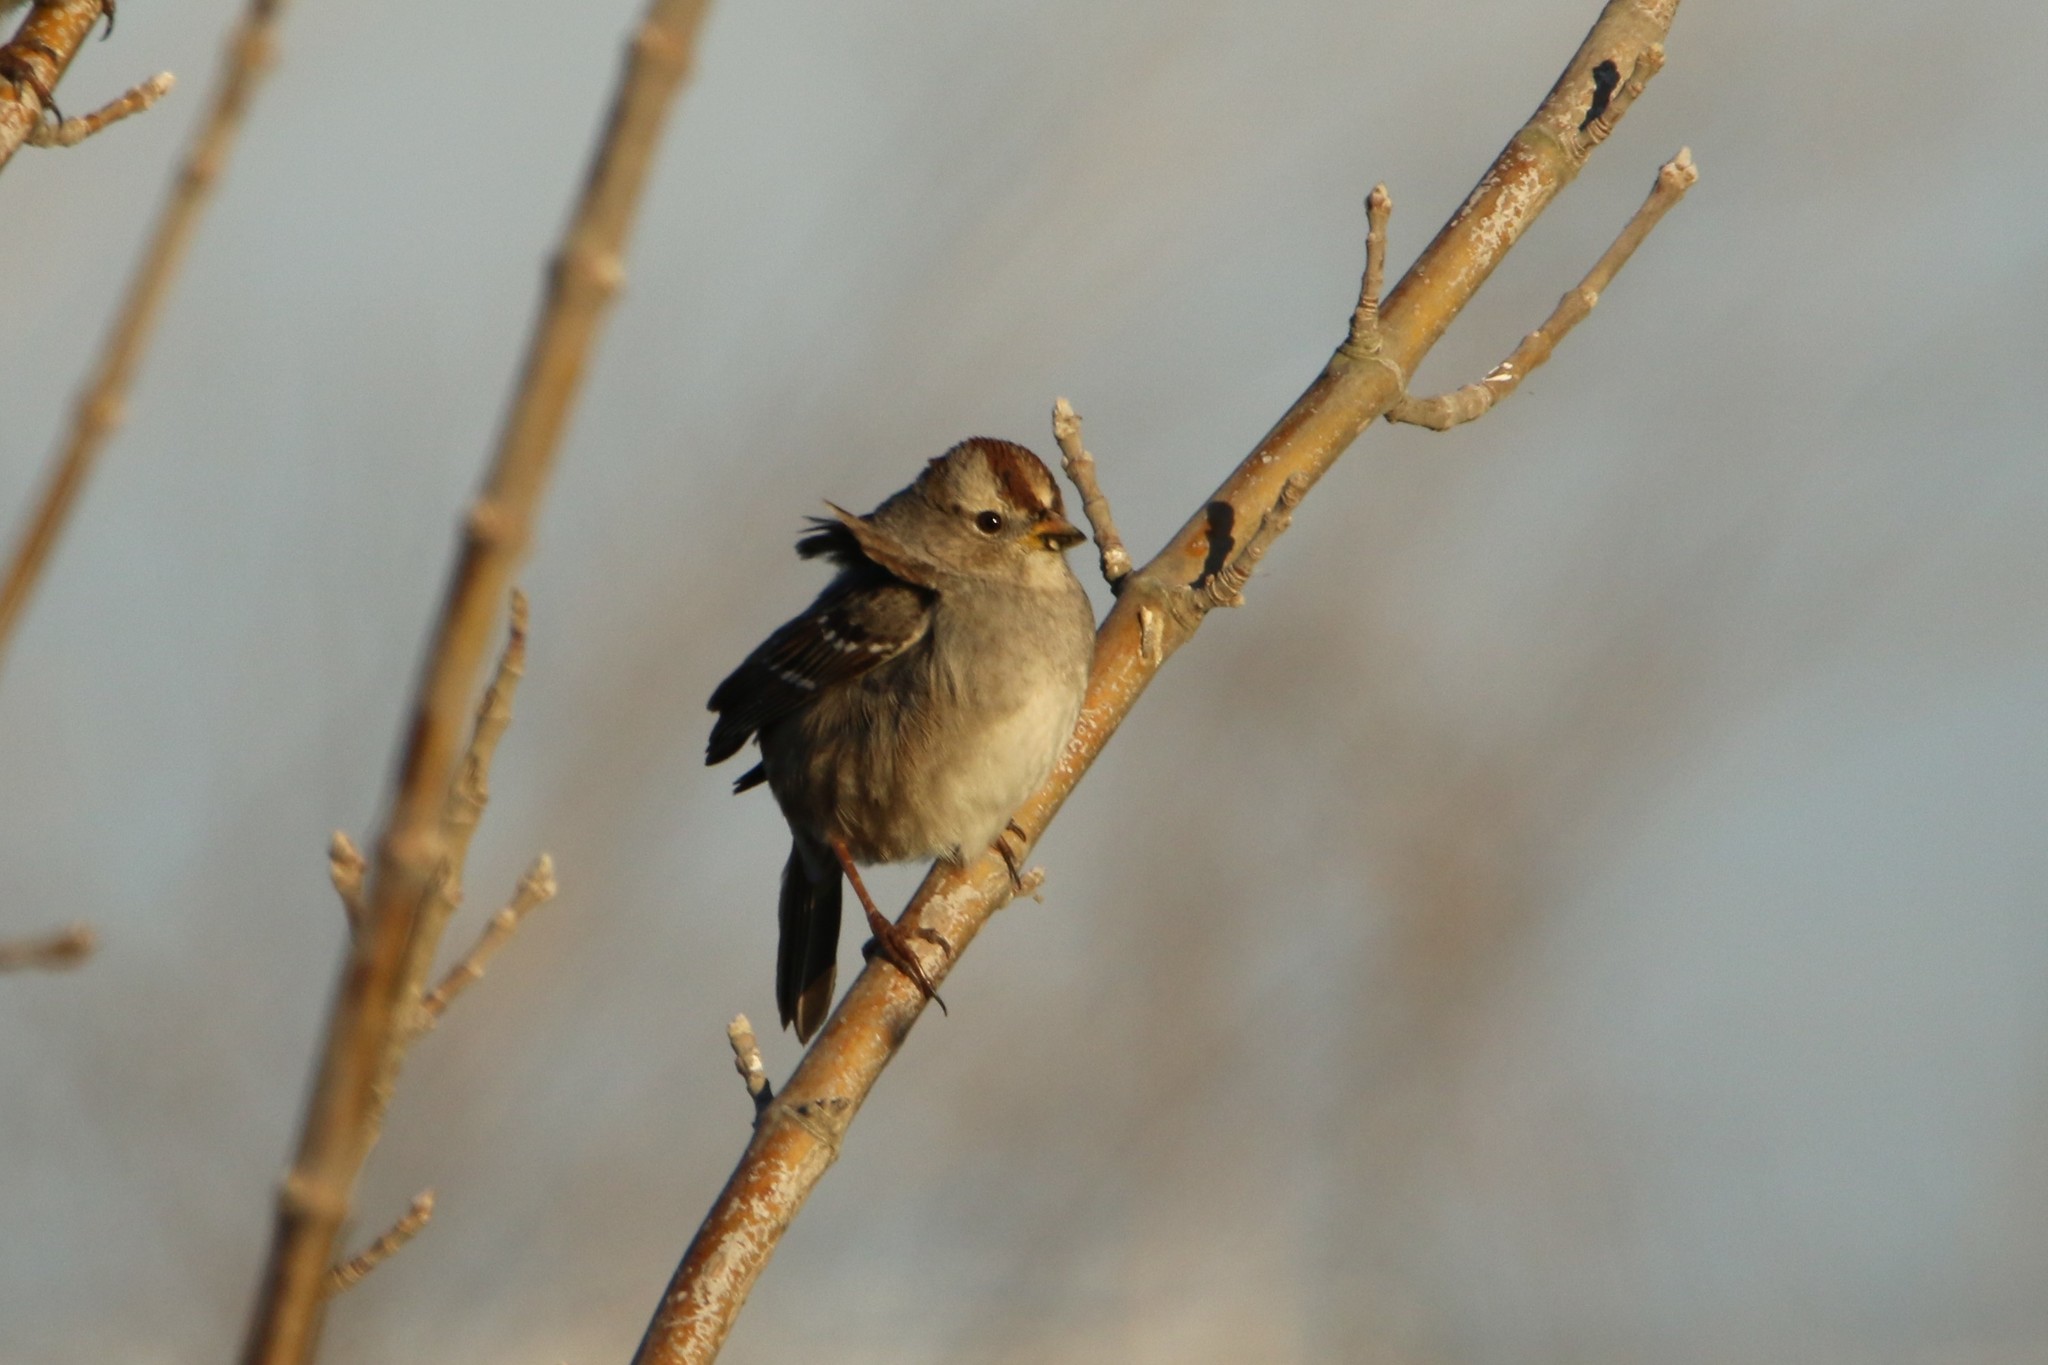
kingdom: Animalia
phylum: Chordata
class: Aves
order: Passeriformes
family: Passerellidae
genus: Zonotrichia
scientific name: Zonotrichia leucophrys
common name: White-crowned sparrow
